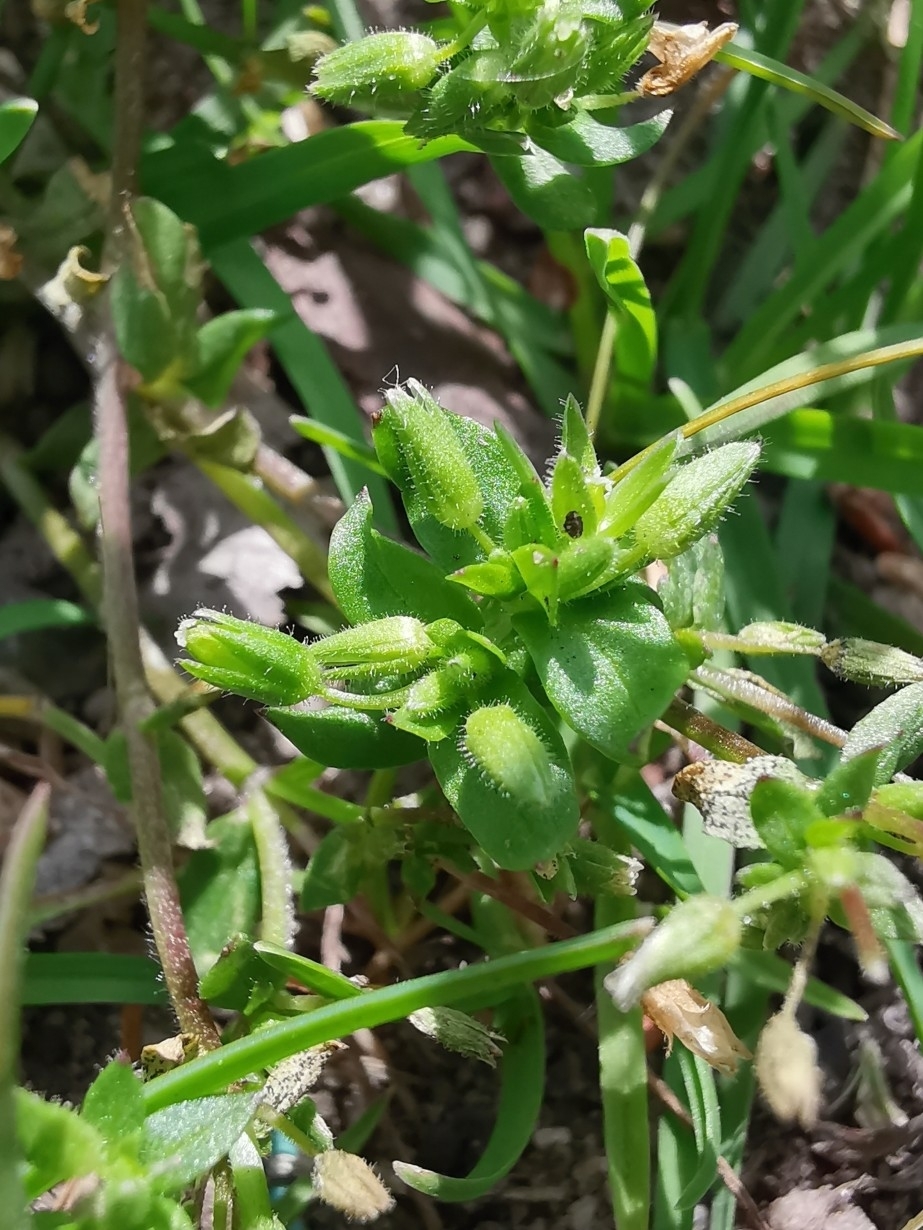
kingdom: Plantae
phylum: Tracheophyta
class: Magnoliopsida
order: Caryophyllales
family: Caryophyllaceae
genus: Stellaria
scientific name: Stellaria media
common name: Common chickweed
